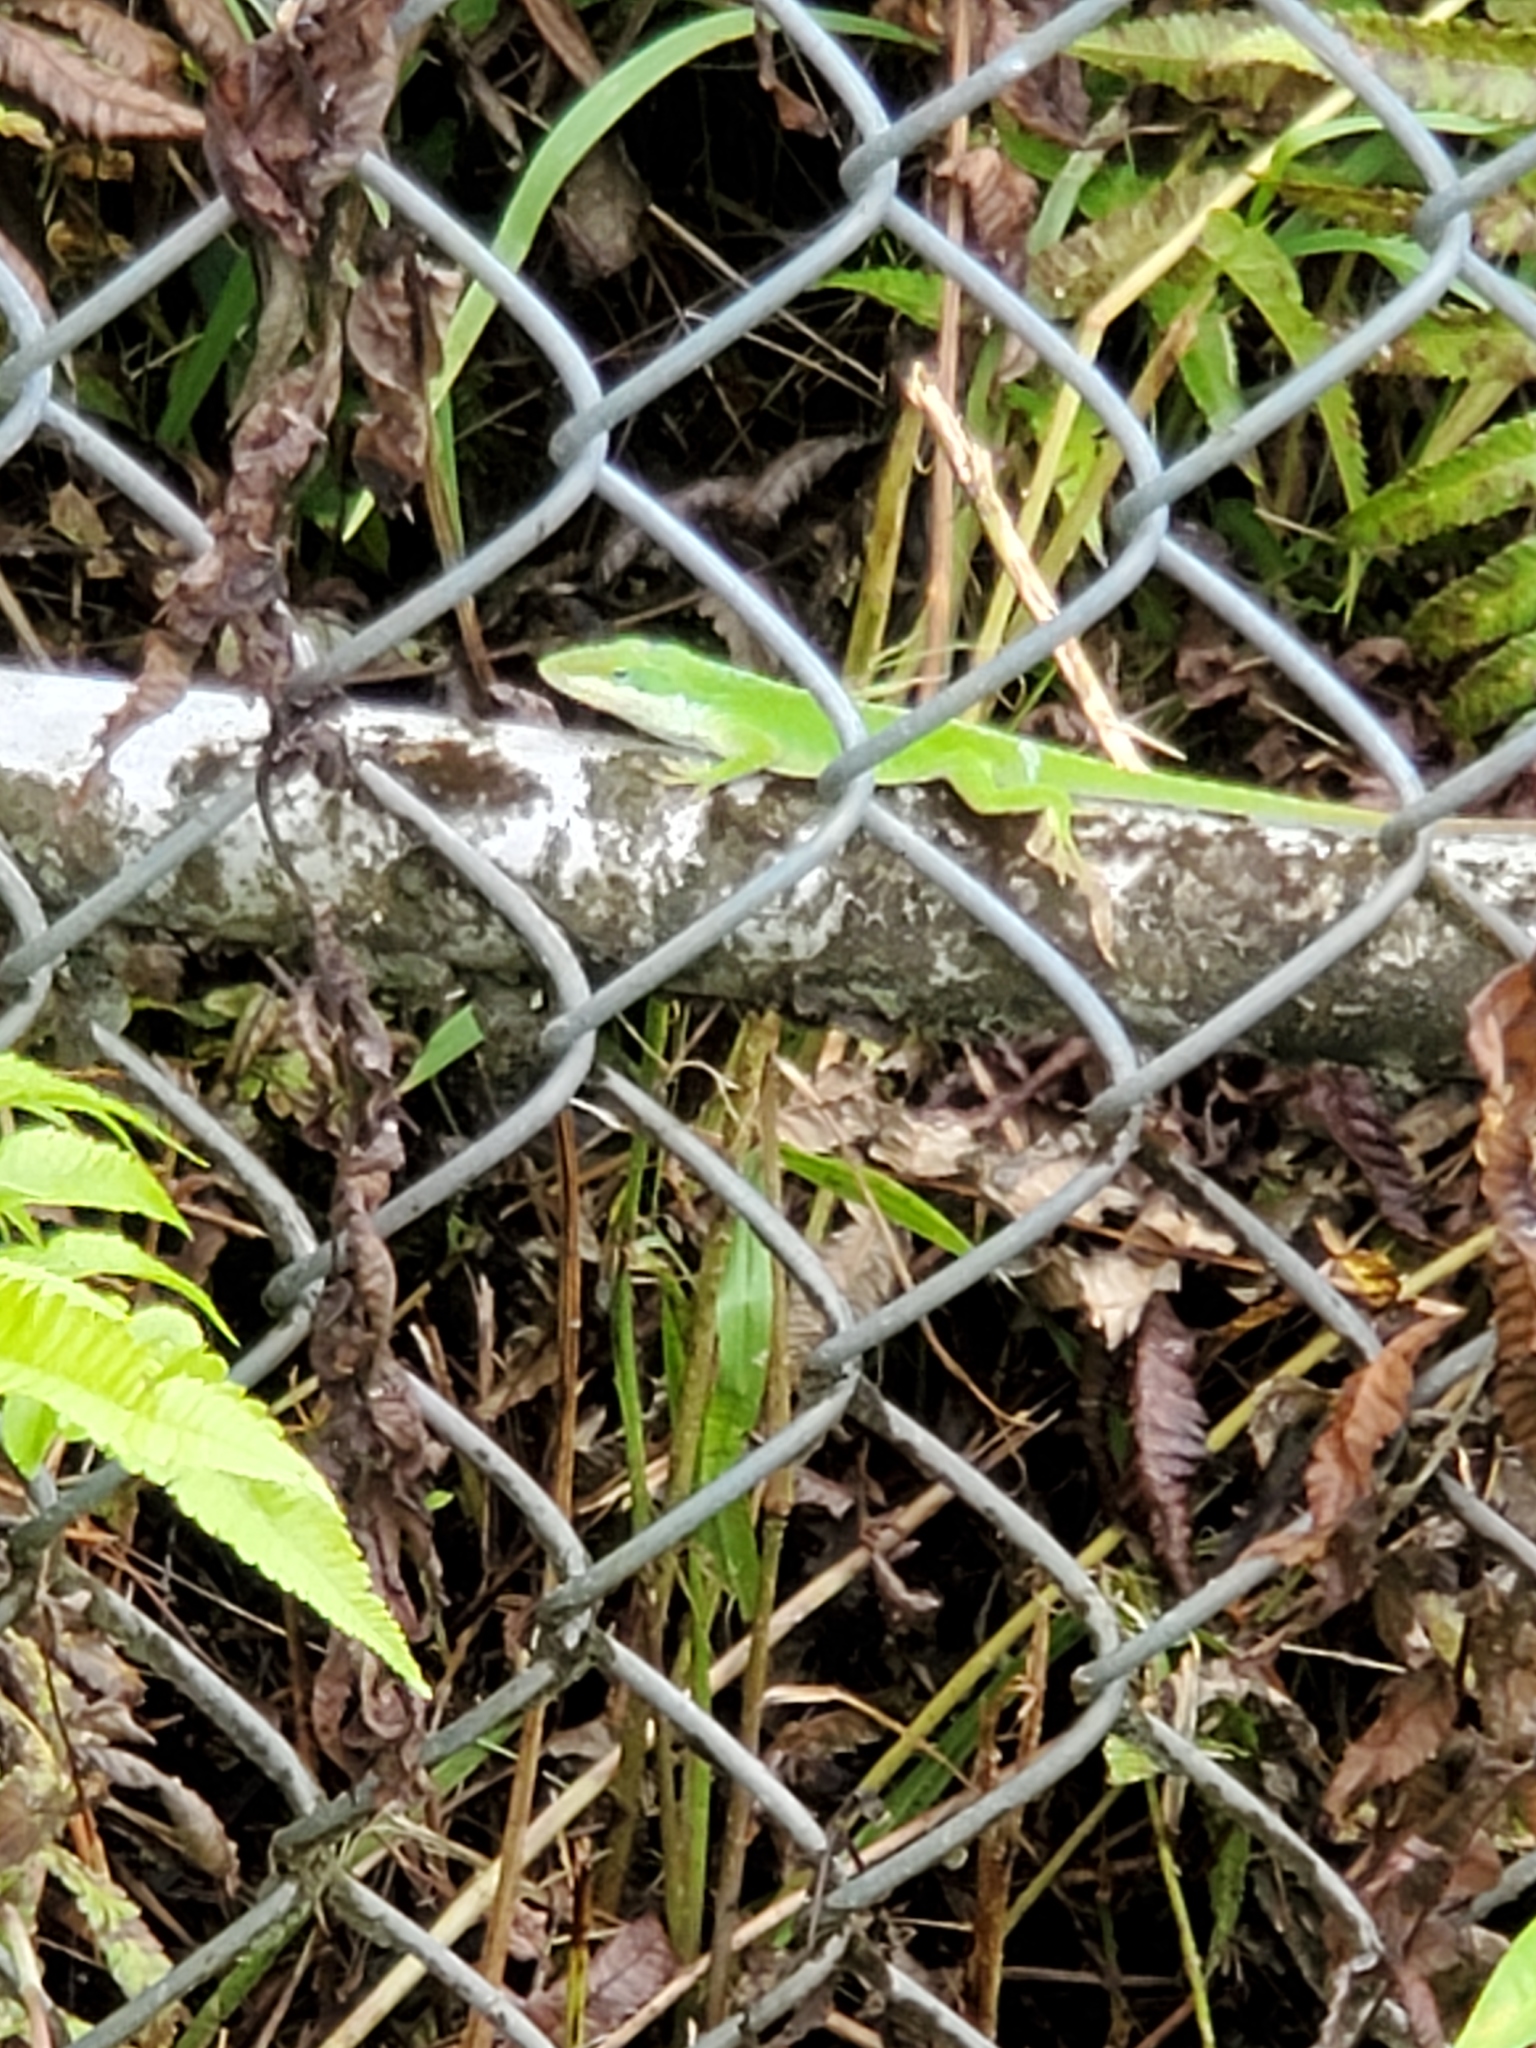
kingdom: Animalia
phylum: Chordata
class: Squamata
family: Dactyloidae
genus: Anolis
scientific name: Anolis carolinensis
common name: Green anole
